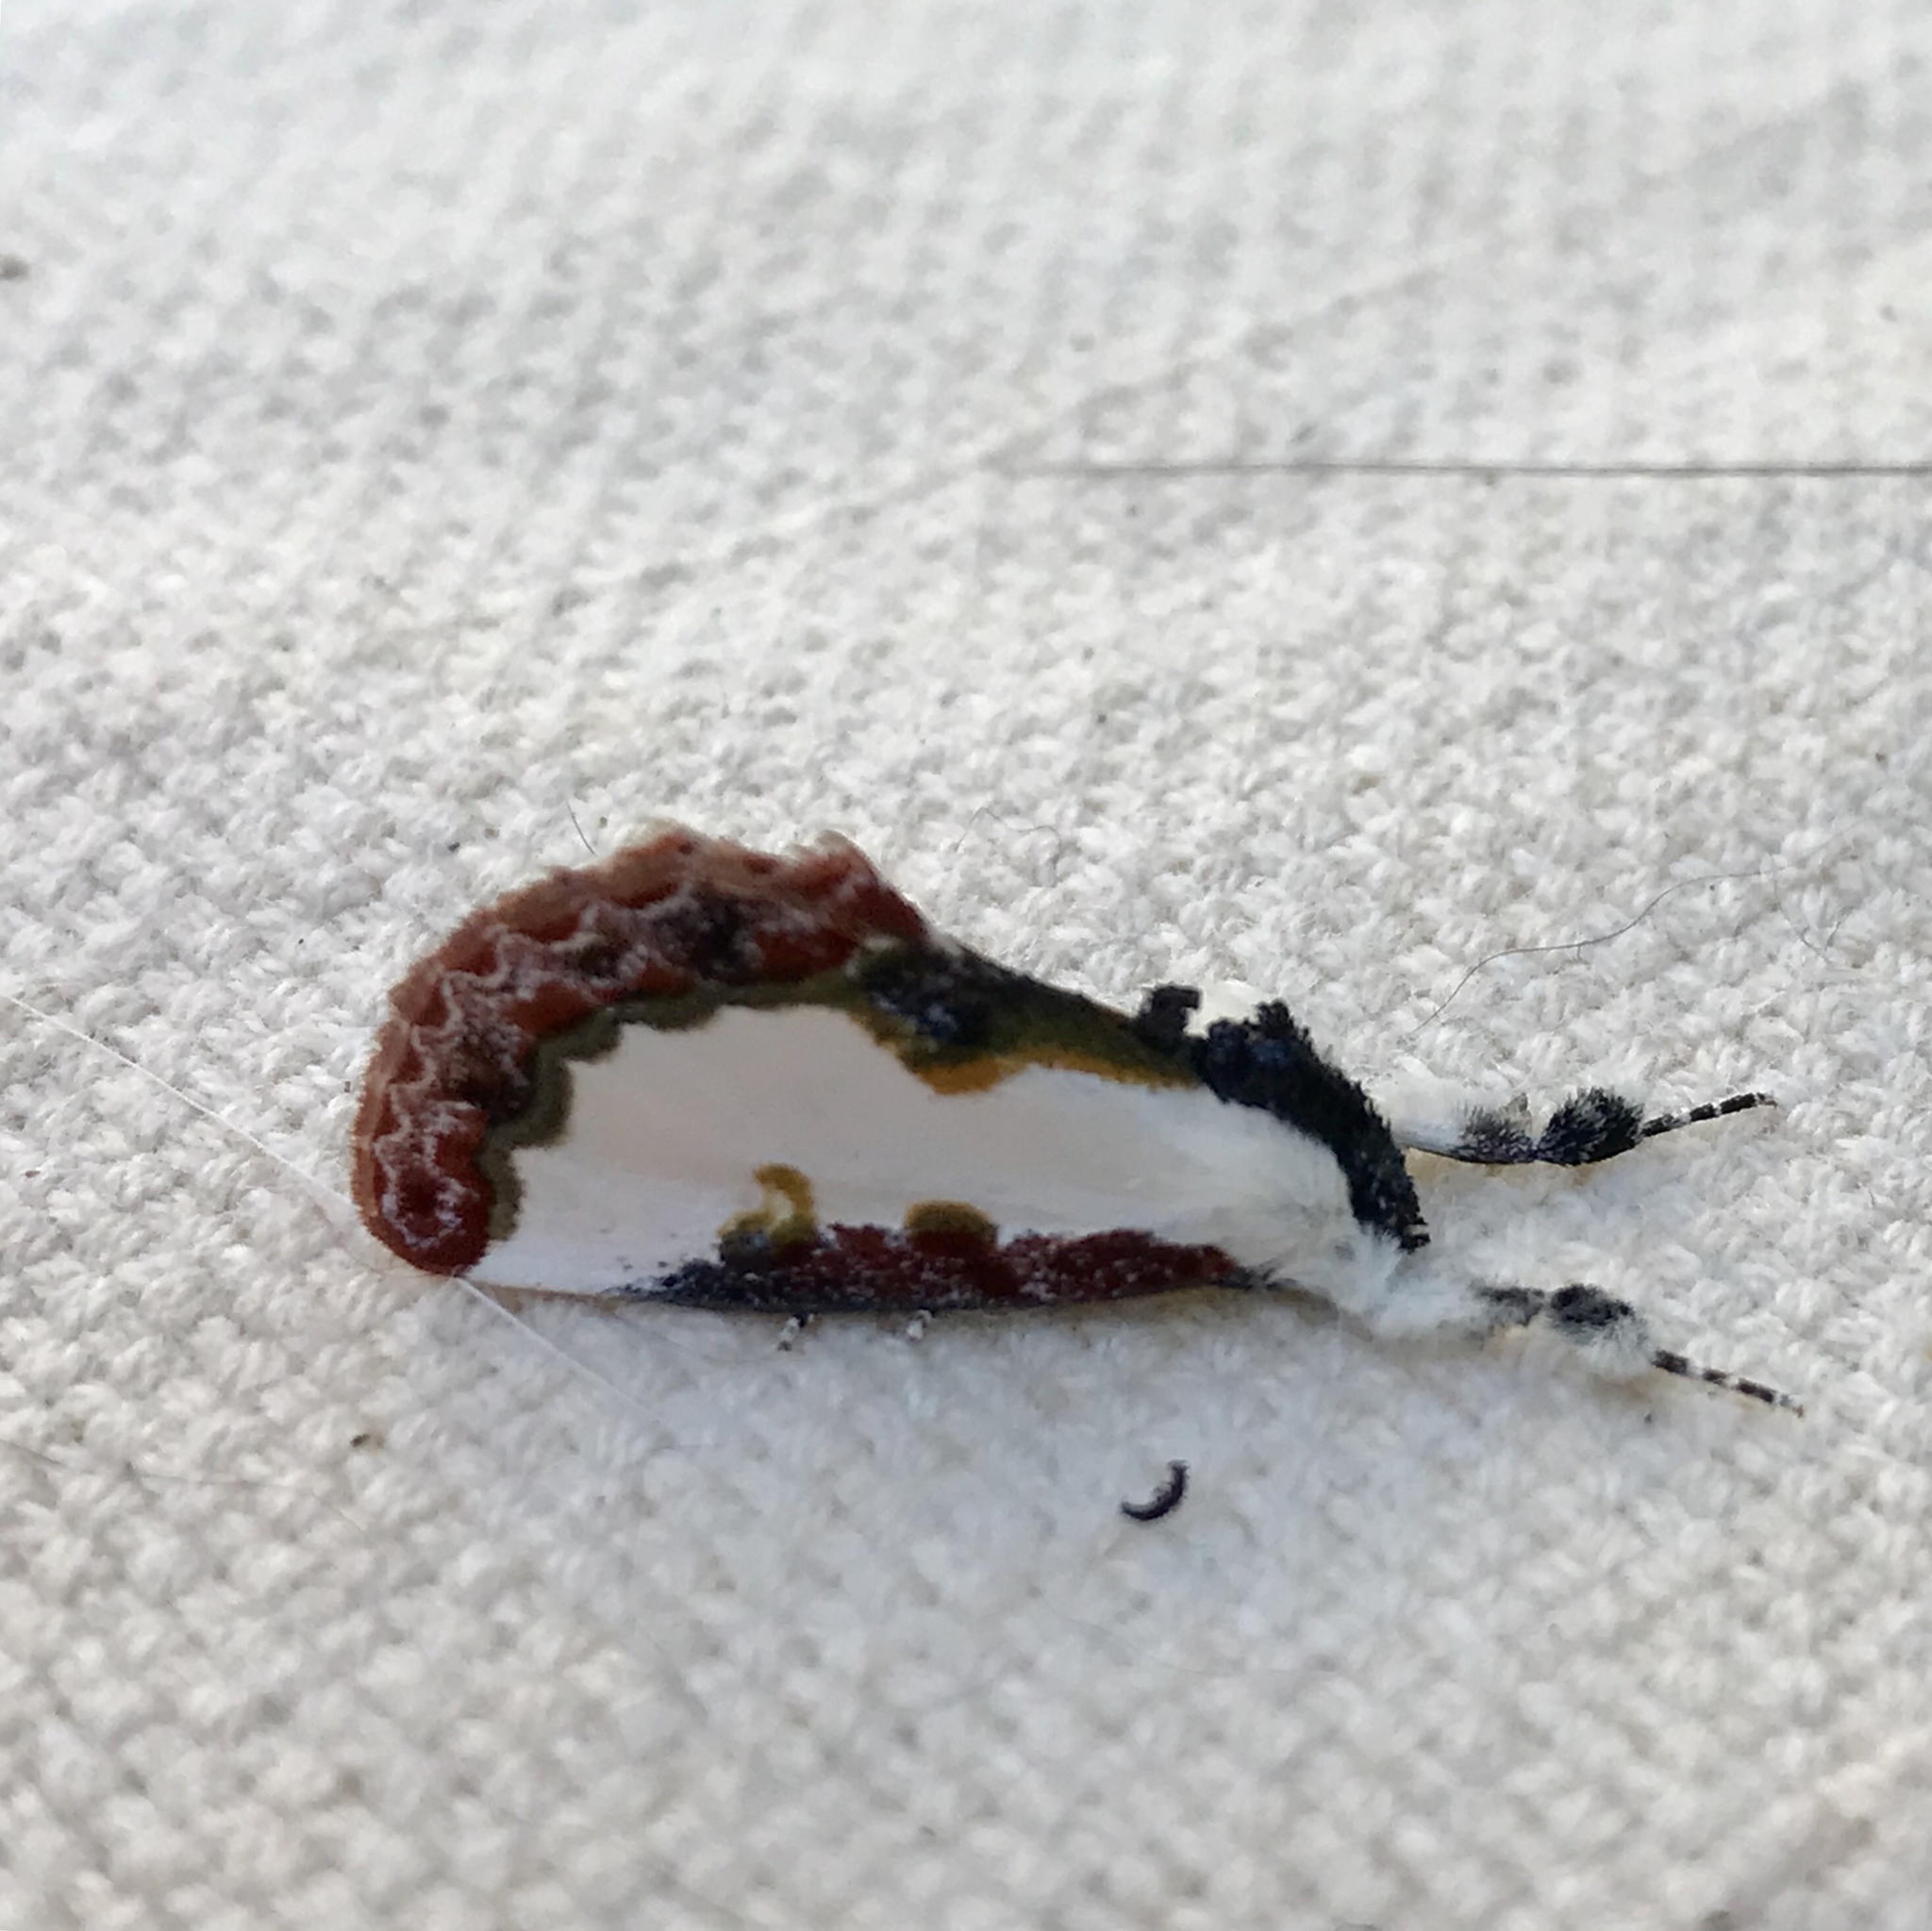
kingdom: Animalia
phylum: Arthropoda
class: Insecta
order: Lepidoptera
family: Noctuidae
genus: Eudryas
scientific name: Eudryas unio
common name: Pearly wood-nymph
